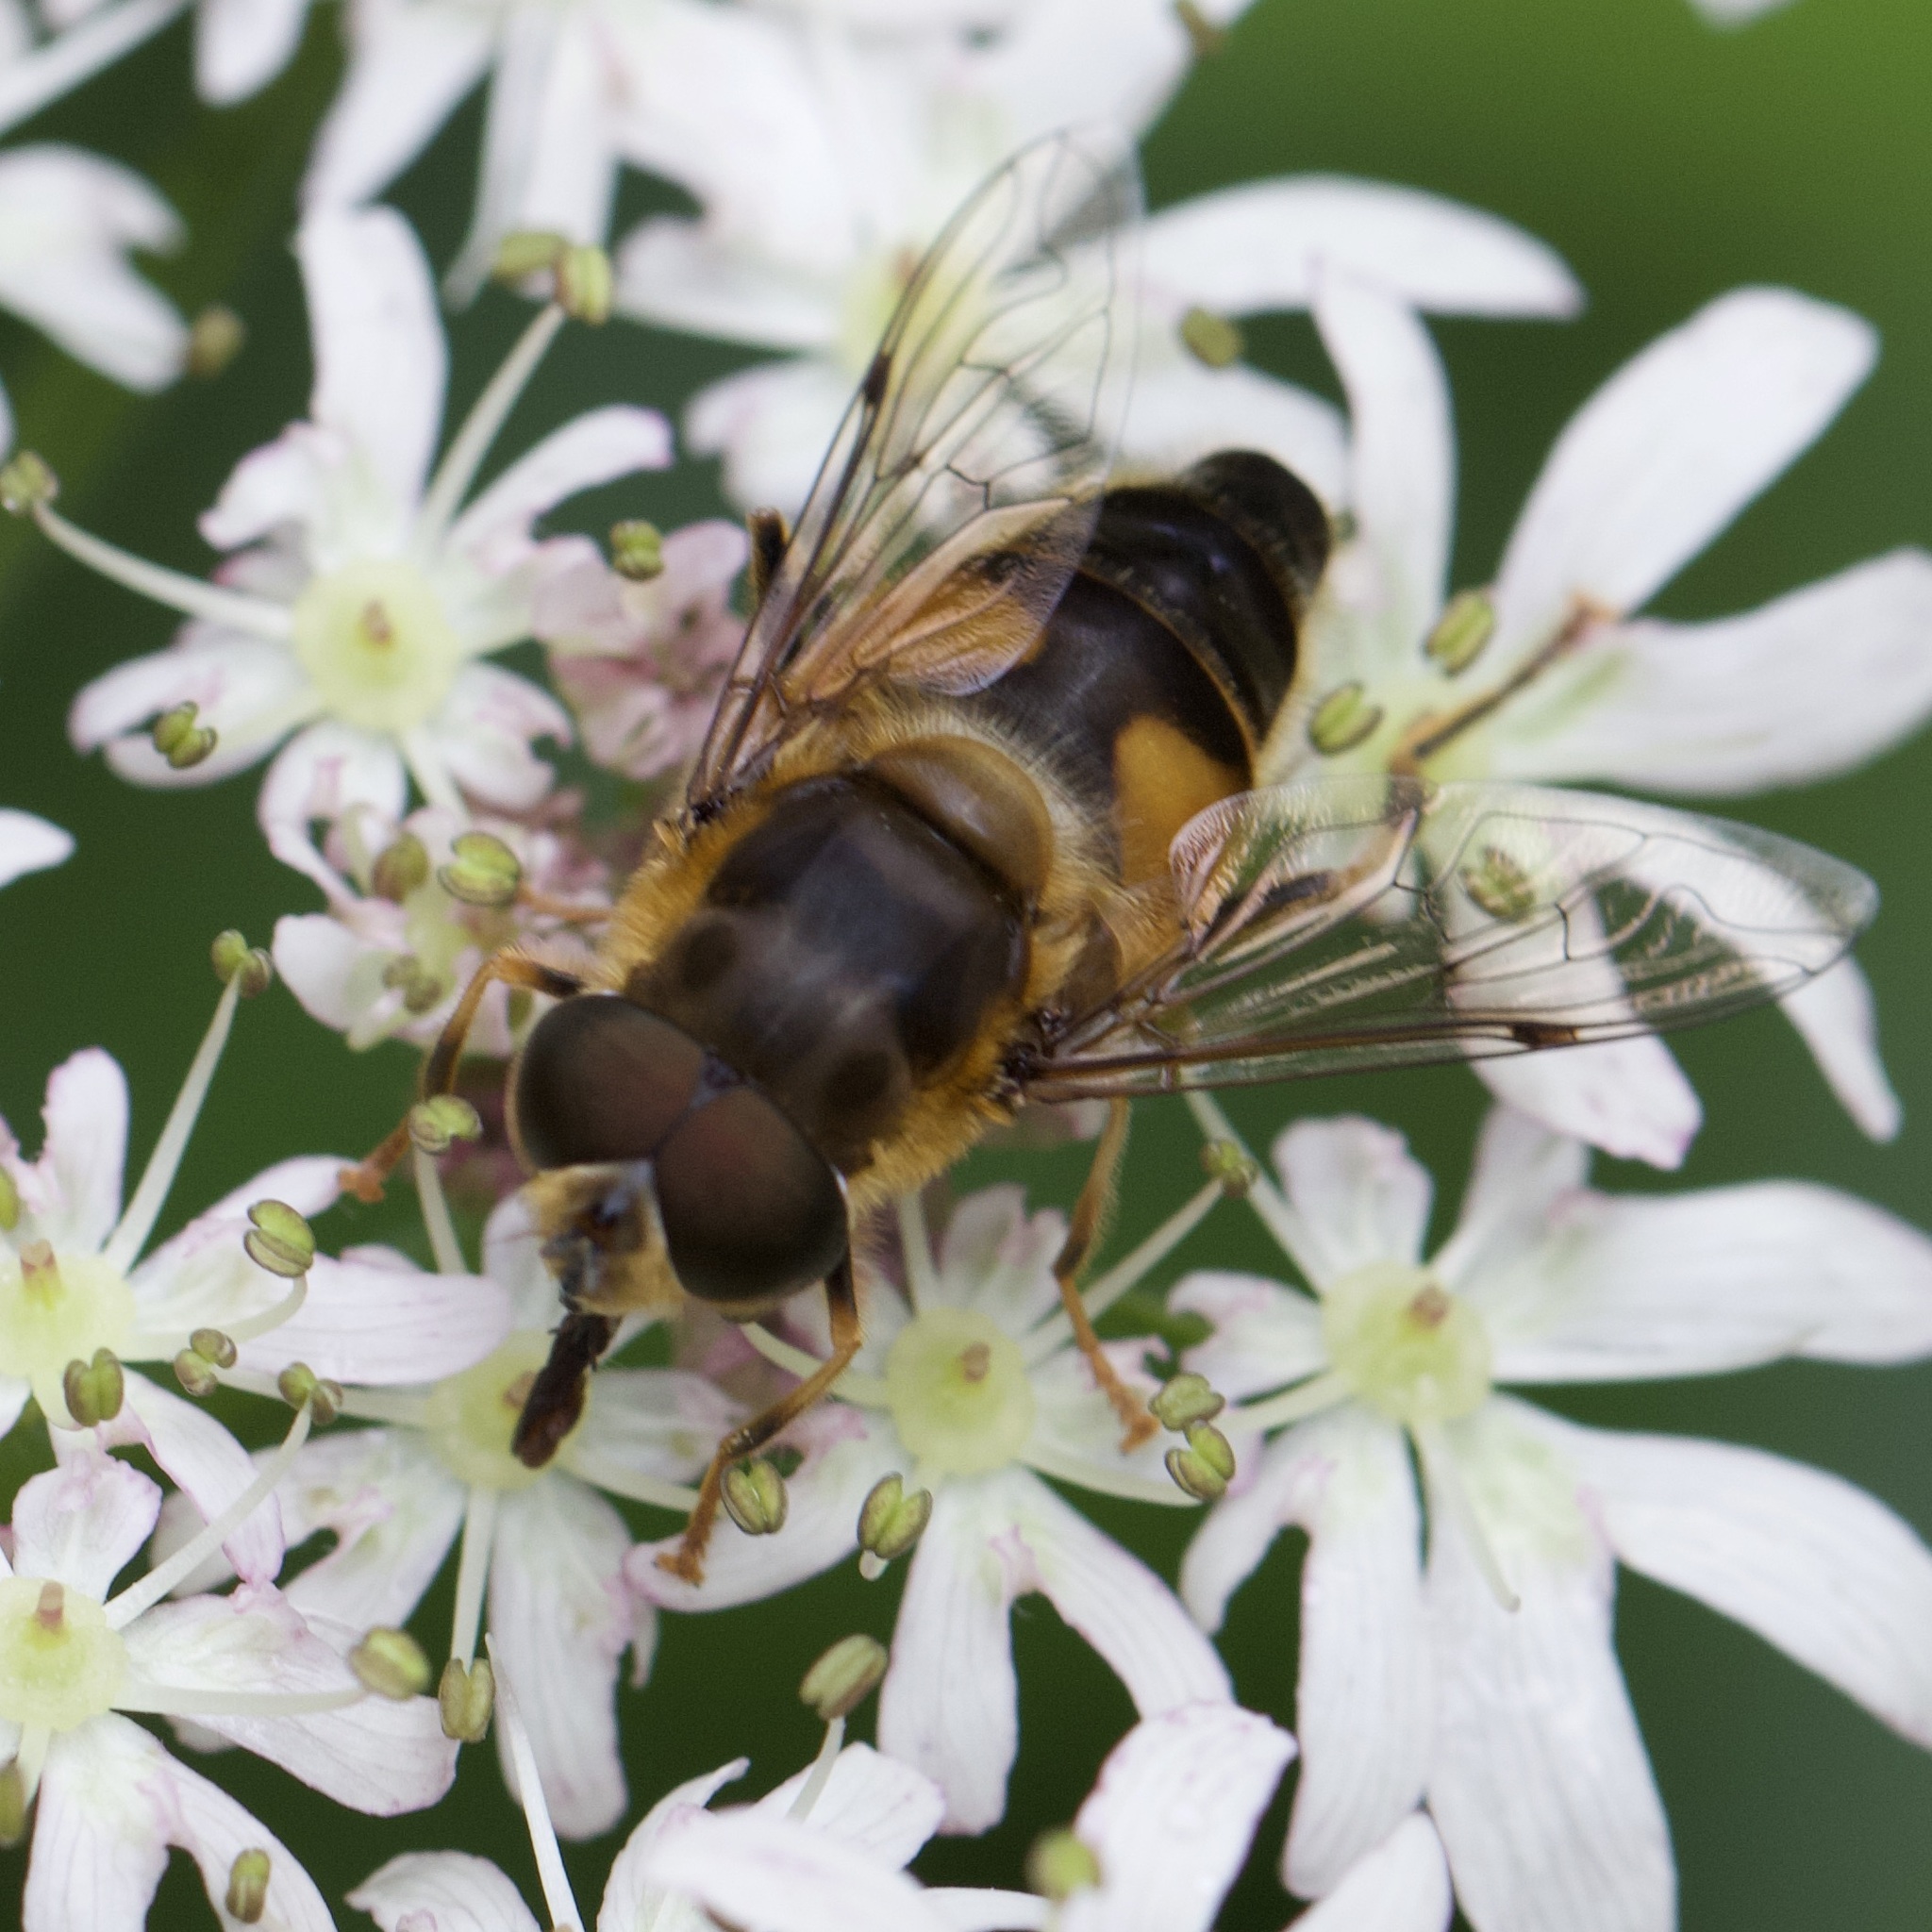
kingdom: Animalia
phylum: Arthropoda
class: Insecta
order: Diptera
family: Syrphidae
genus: Eristalis
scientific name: Eristalis pertinax
